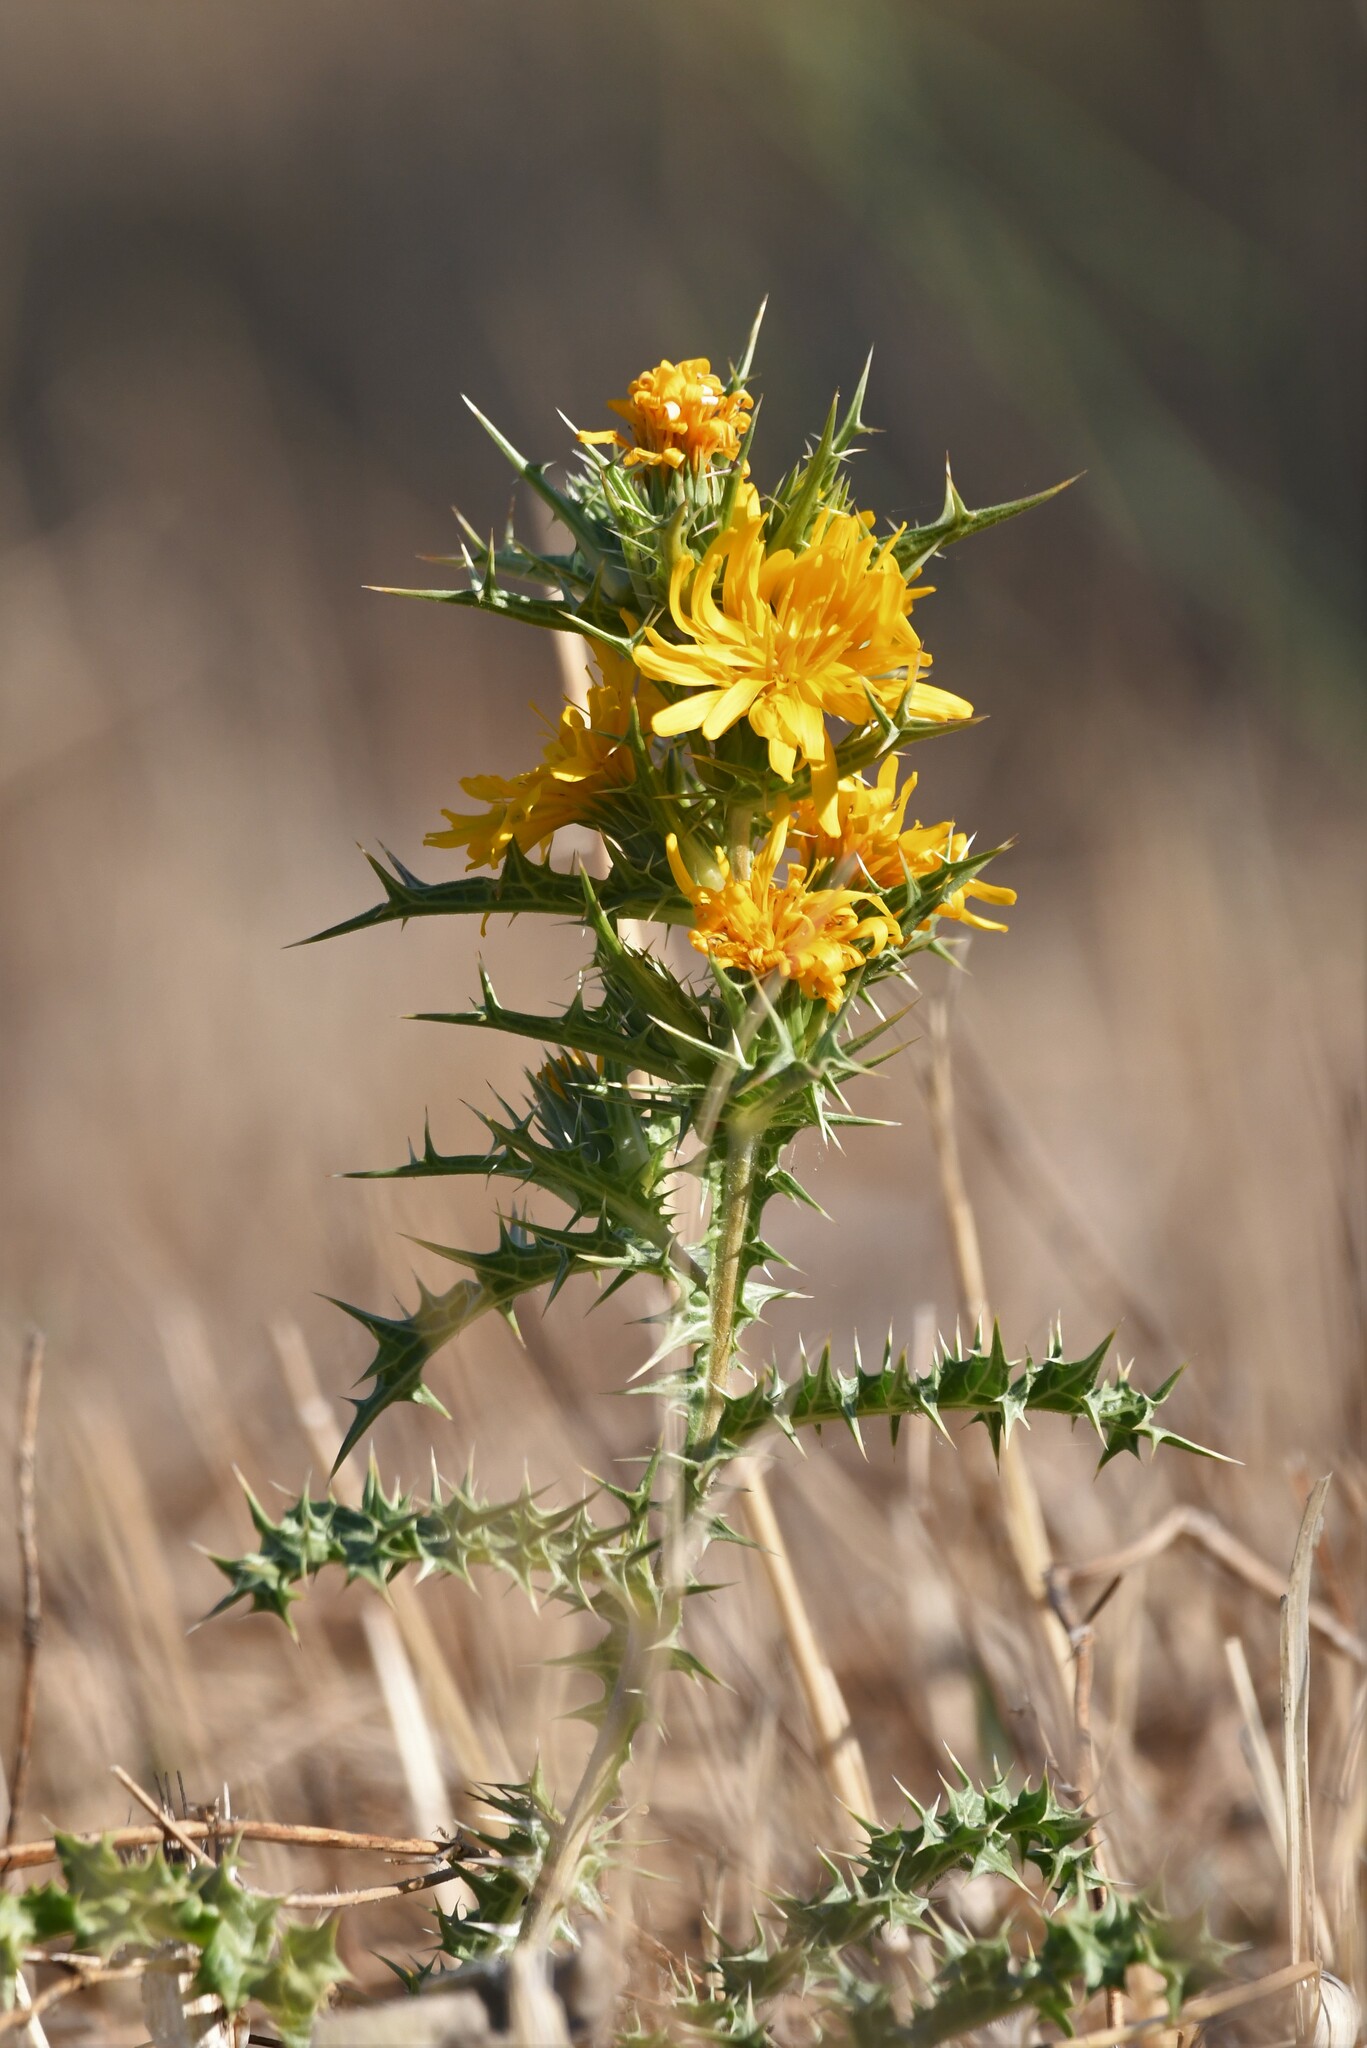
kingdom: Plantae
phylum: Tracheophyta
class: Magnoliopsida
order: Asterales
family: Asteraceae
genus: Scolymus
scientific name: Scolymus hispanicus
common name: Golden thistle
